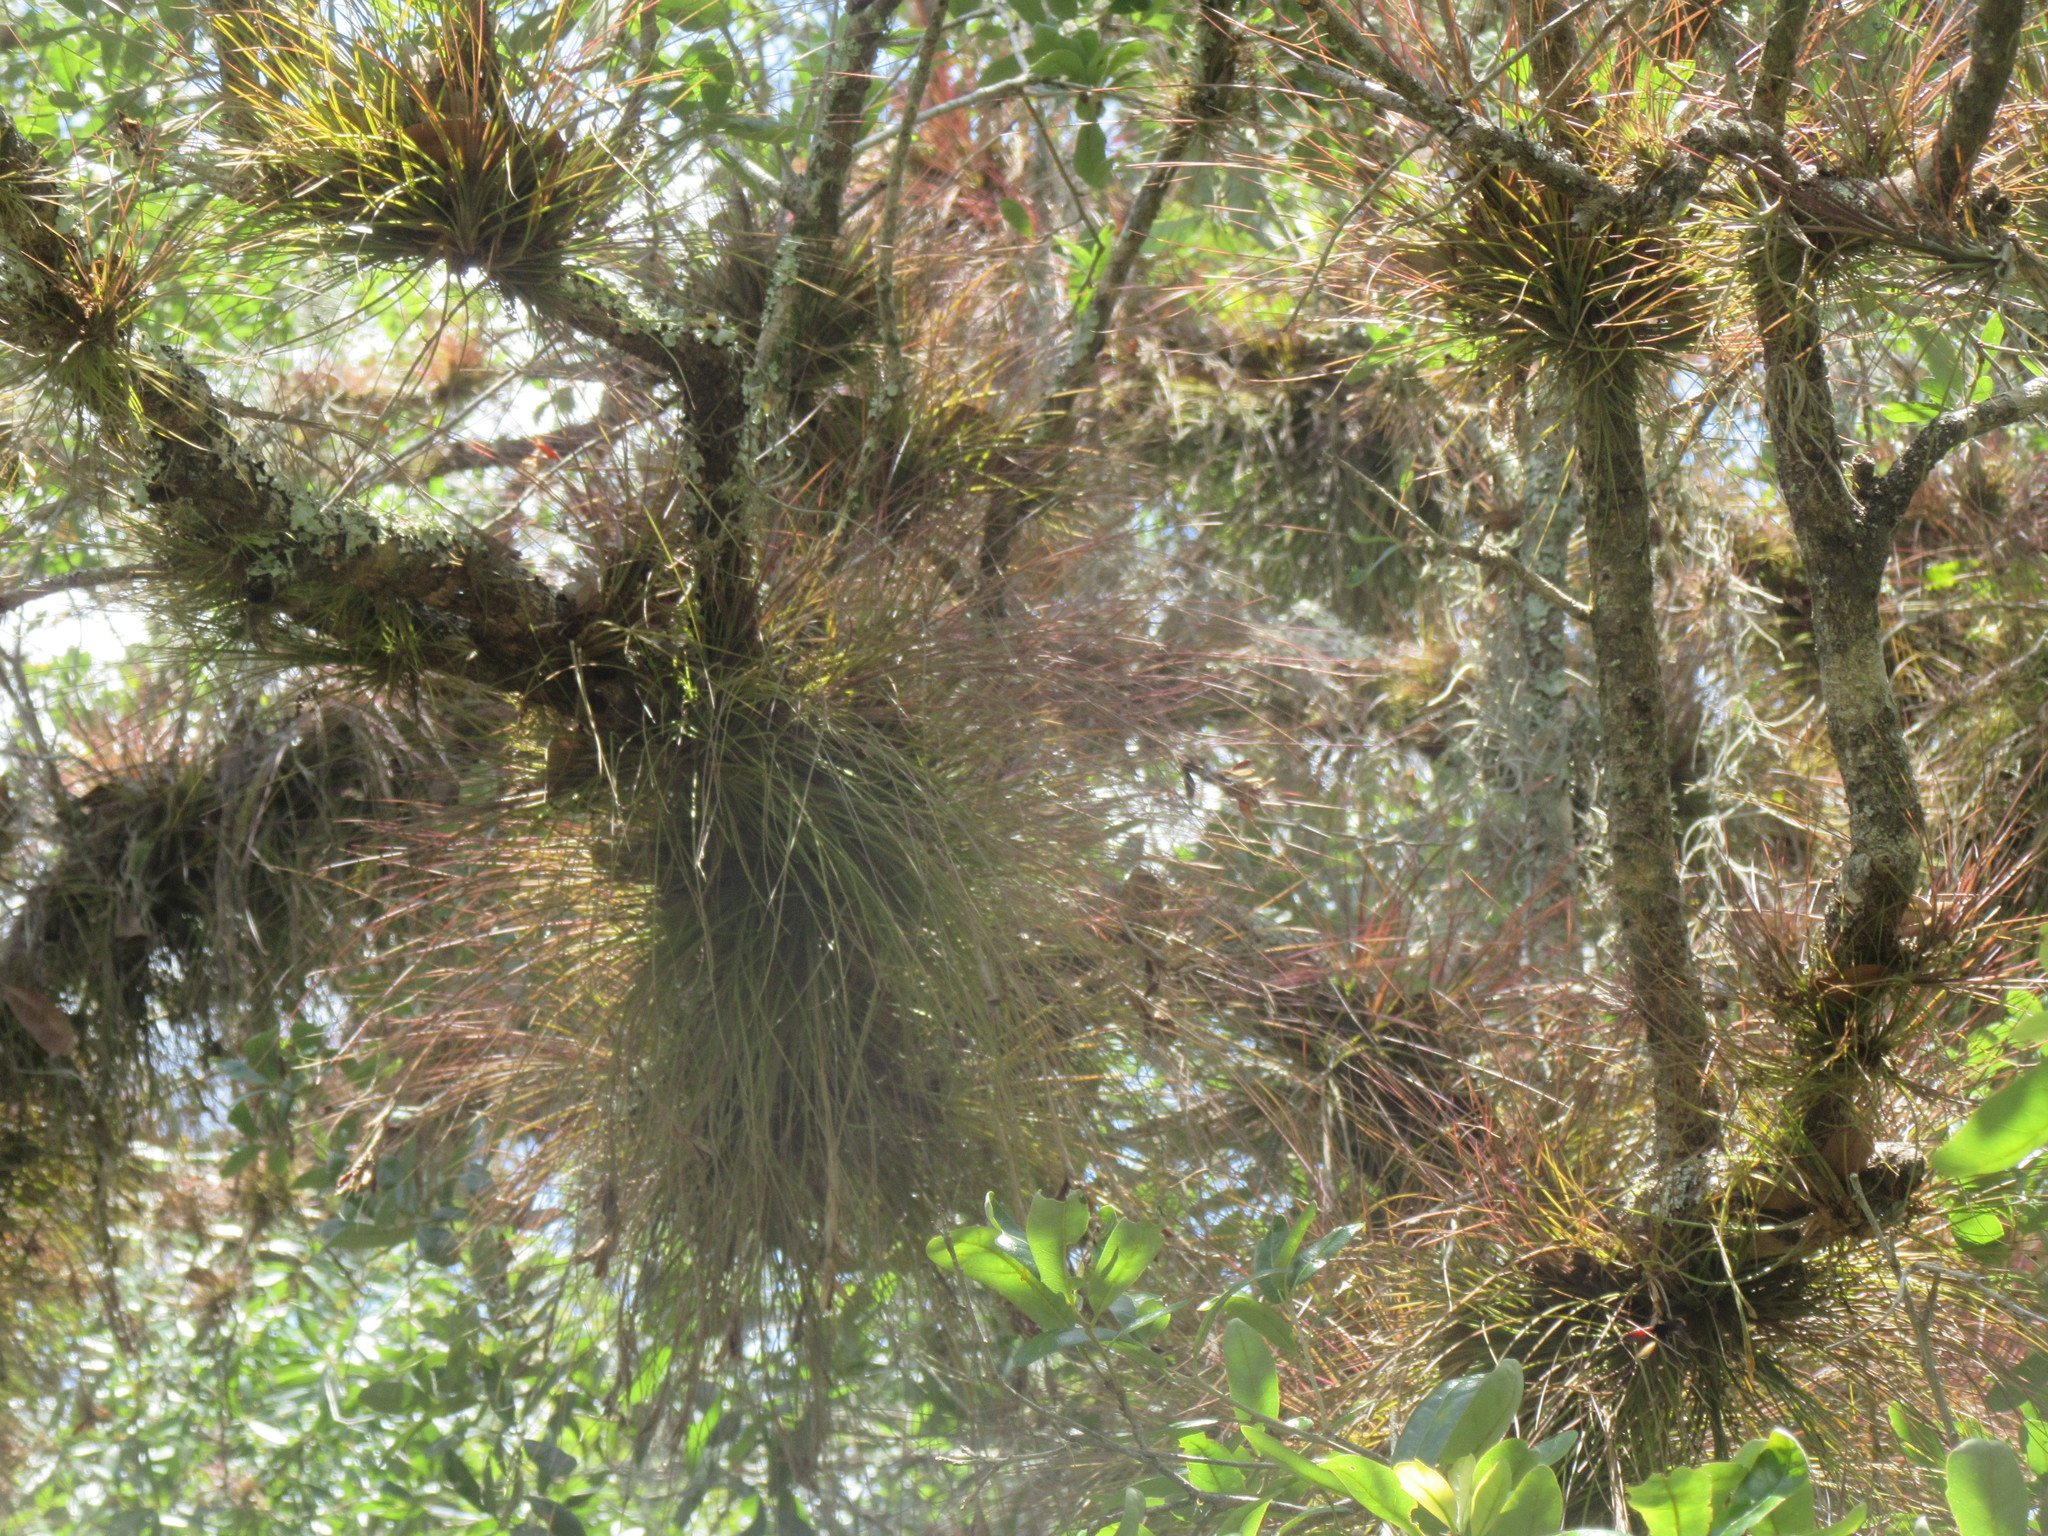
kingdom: Plantae
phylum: Tracheophyta
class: Liliopsida
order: Poales
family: Bromeliaceae
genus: Tillandsia
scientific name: Tillandsia setacea
